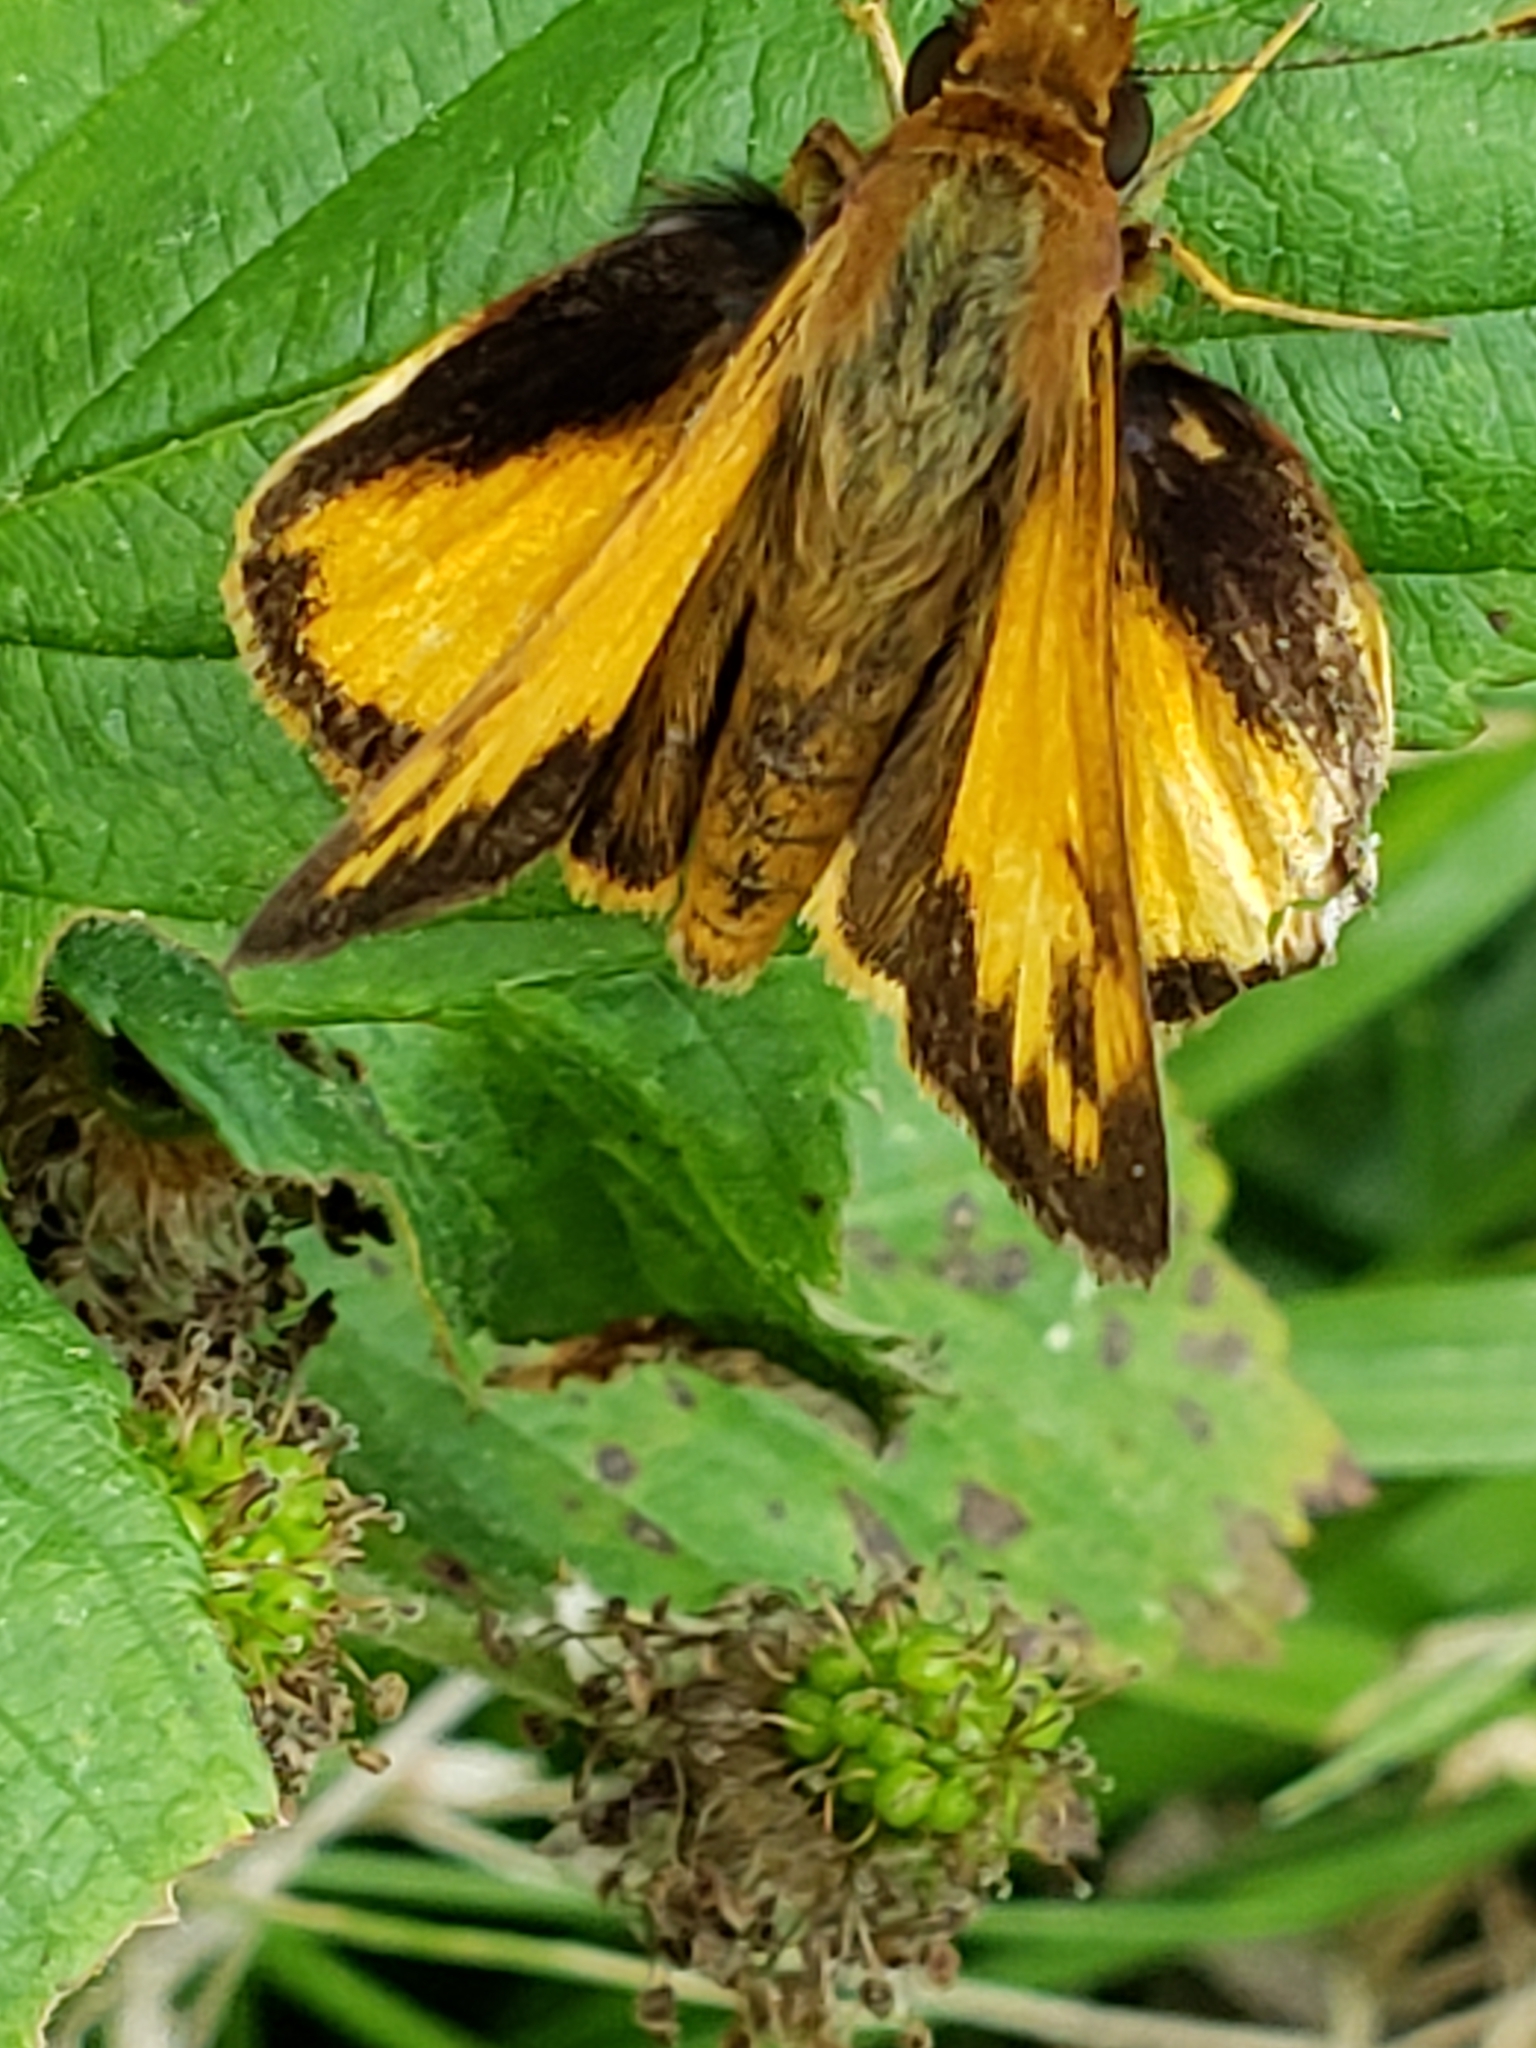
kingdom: Animalia
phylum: Arthropoda
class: Insecta
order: Lepidoptera
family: Hesperiidae
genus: Lon
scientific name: Lon zabulon
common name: Zabulon skipper
